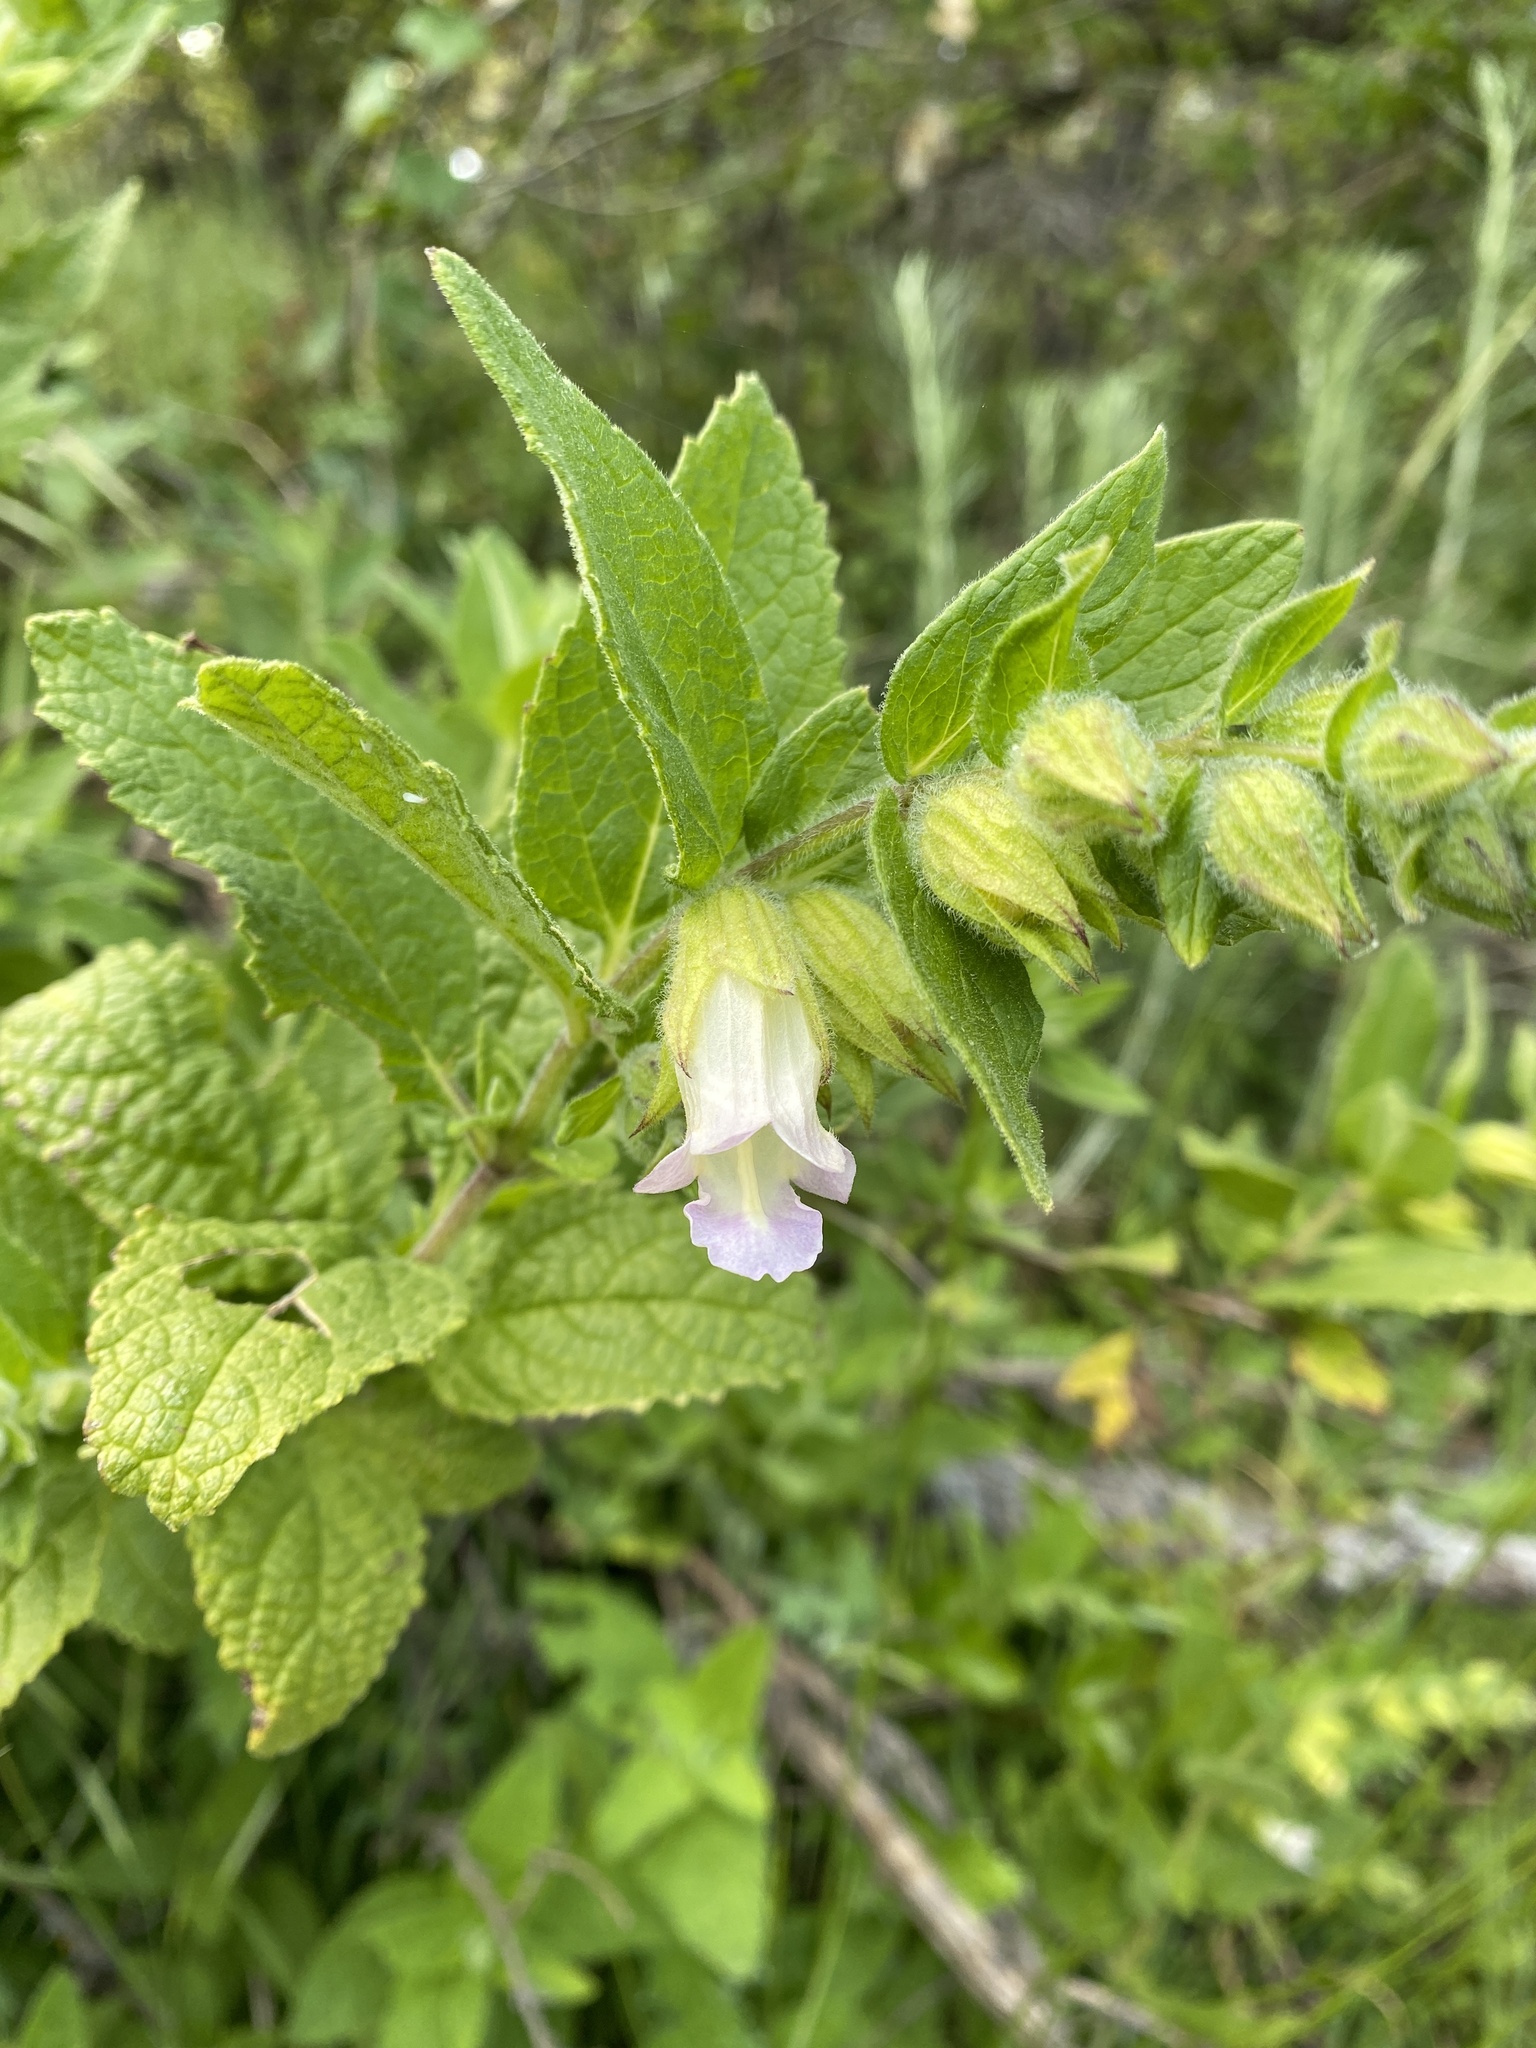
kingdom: Plantae
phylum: Tracheophyta
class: Magnoliopsida
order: Lamiales
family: Lamiaceae
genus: Lepechinia
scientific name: Lepechinia calycina
